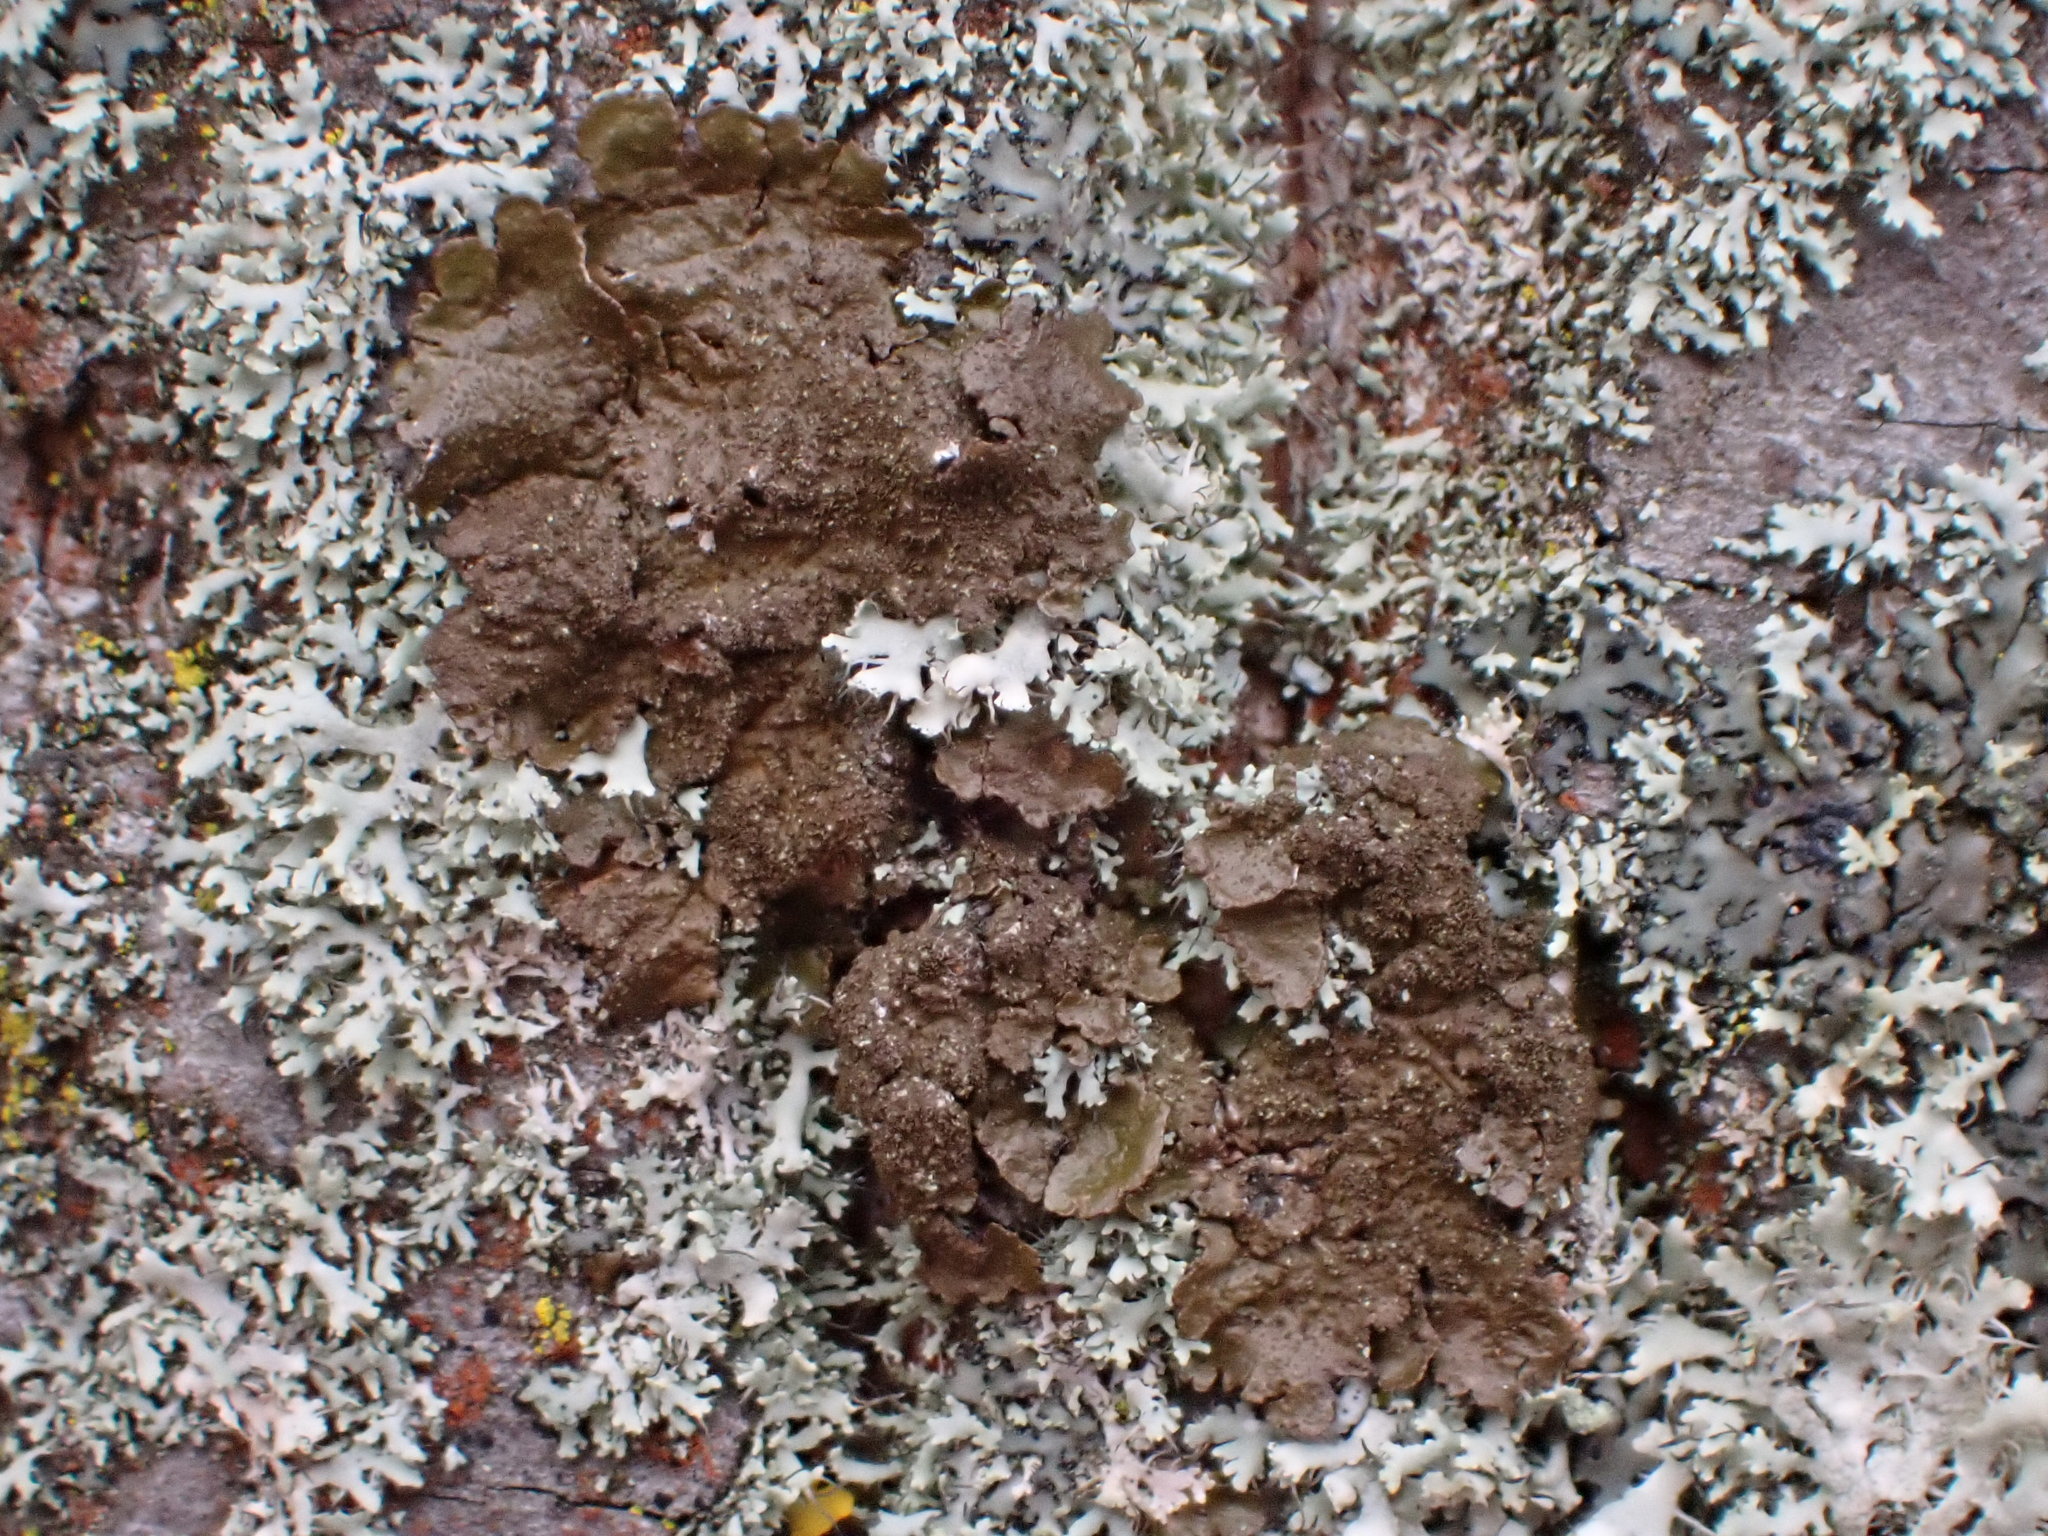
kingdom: Fungi
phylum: Ascomycota
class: Lecanoromycetes
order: Lecanorales
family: Parmeliaceae
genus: Melanelixia
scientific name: Melanelixia subaurifera
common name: Abraded camouflage lichen
